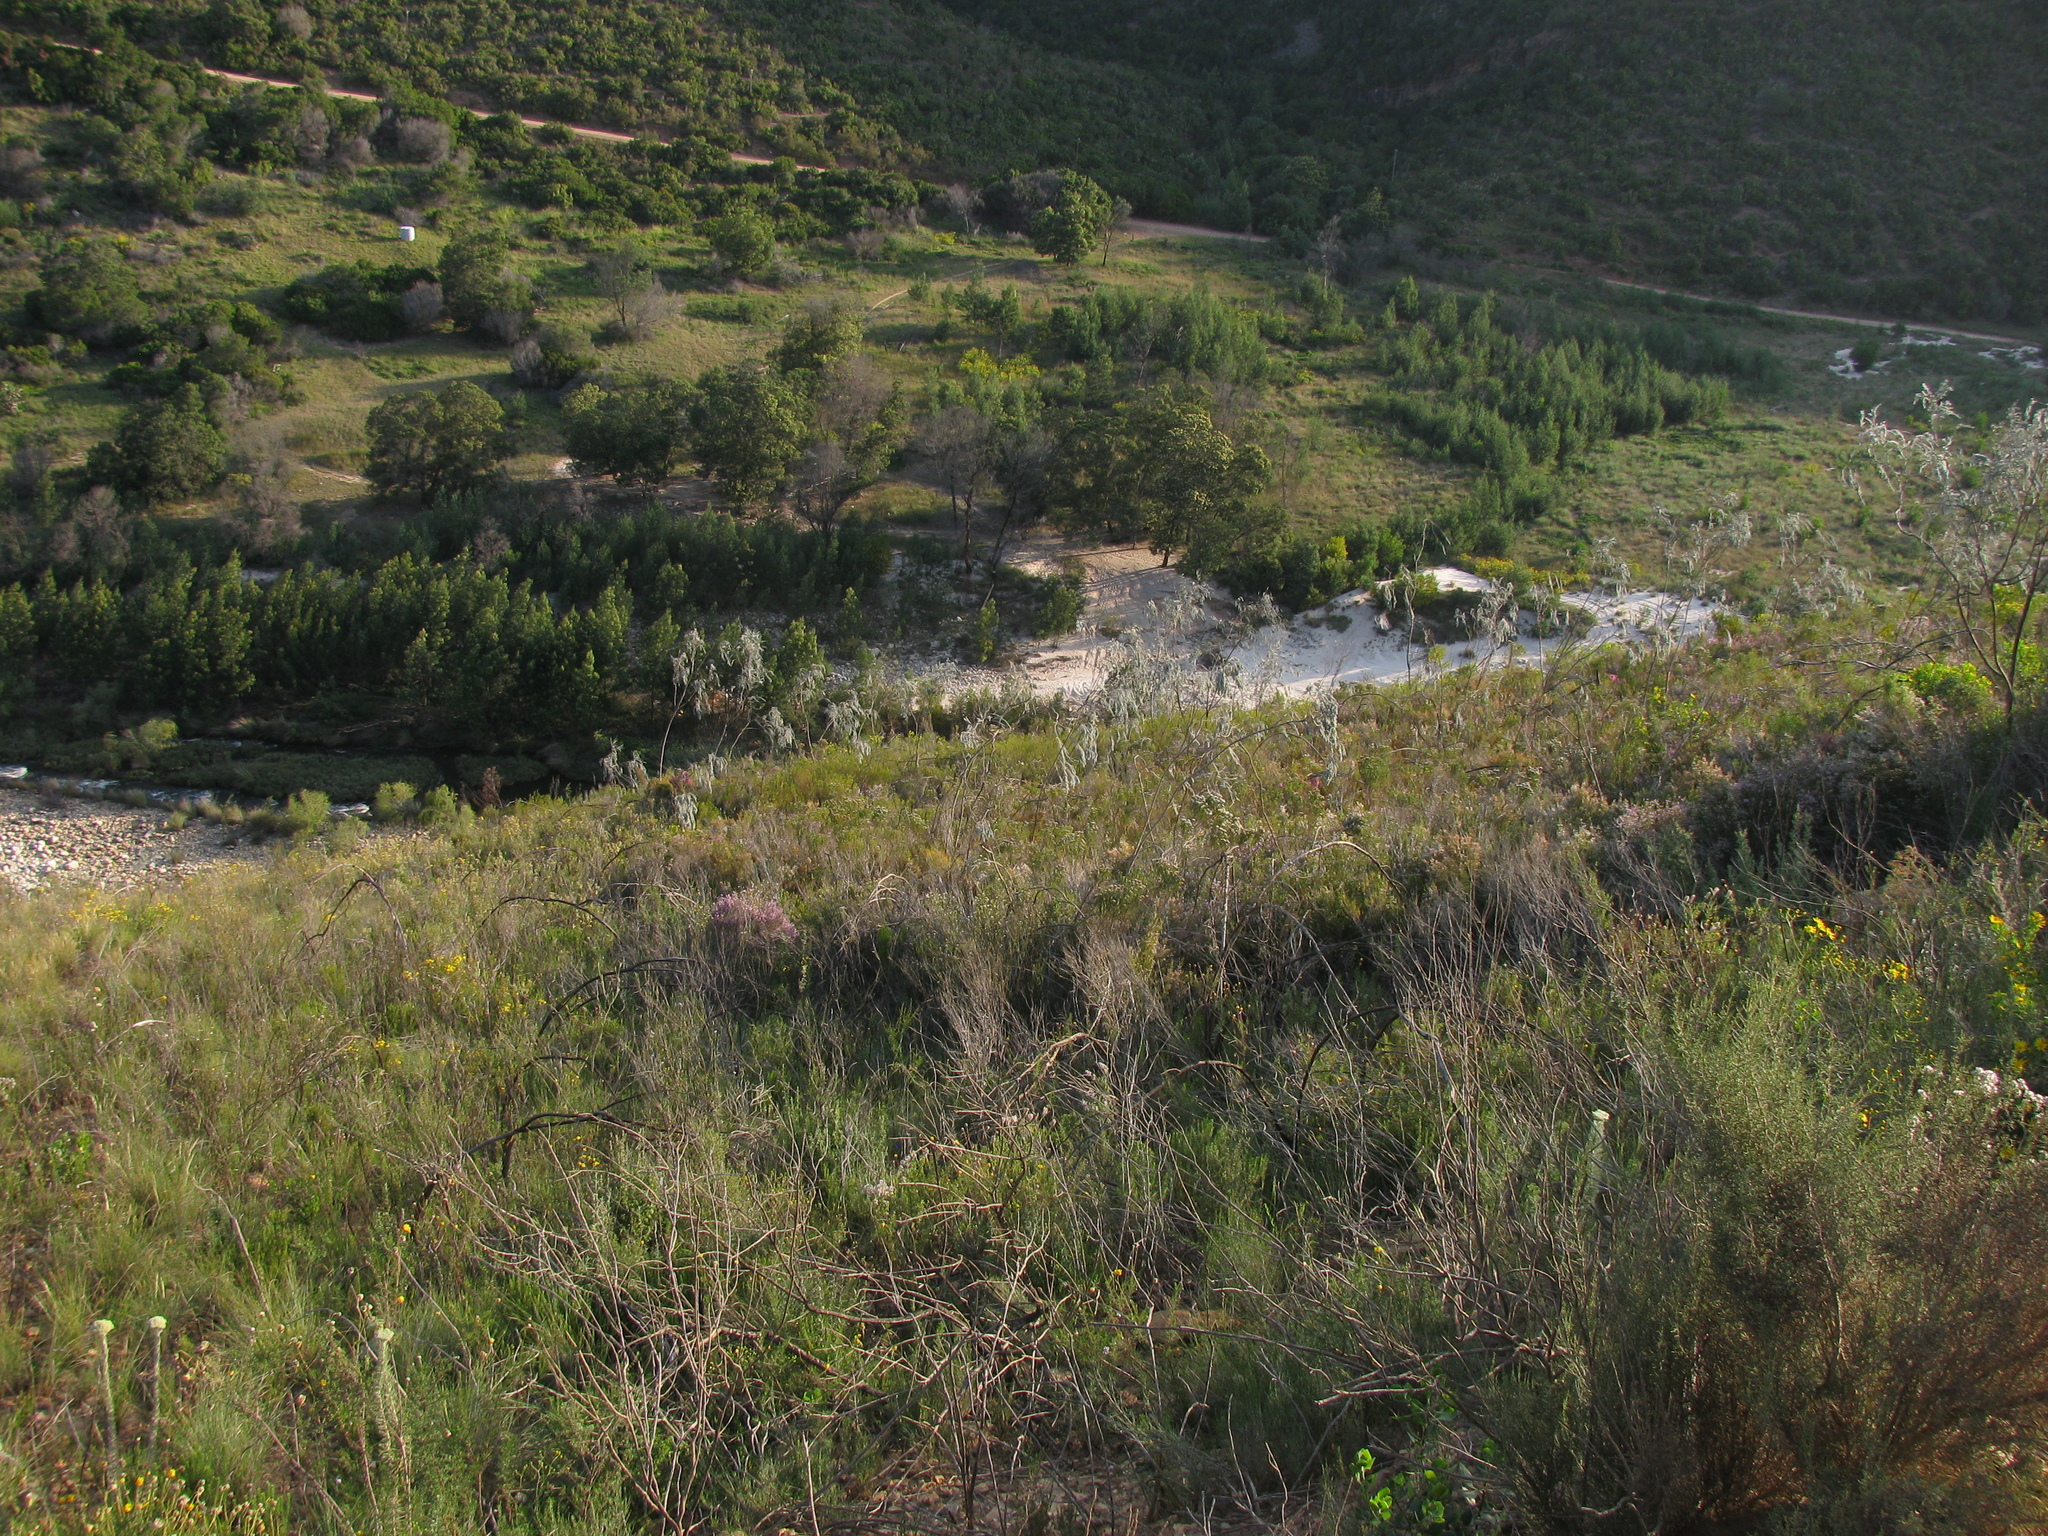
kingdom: Plantae
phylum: Tracheophyta
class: Magnoliopsida
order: Fabales
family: Fabaceae
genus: Aspalathus
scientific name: Aspalathus usnoides
